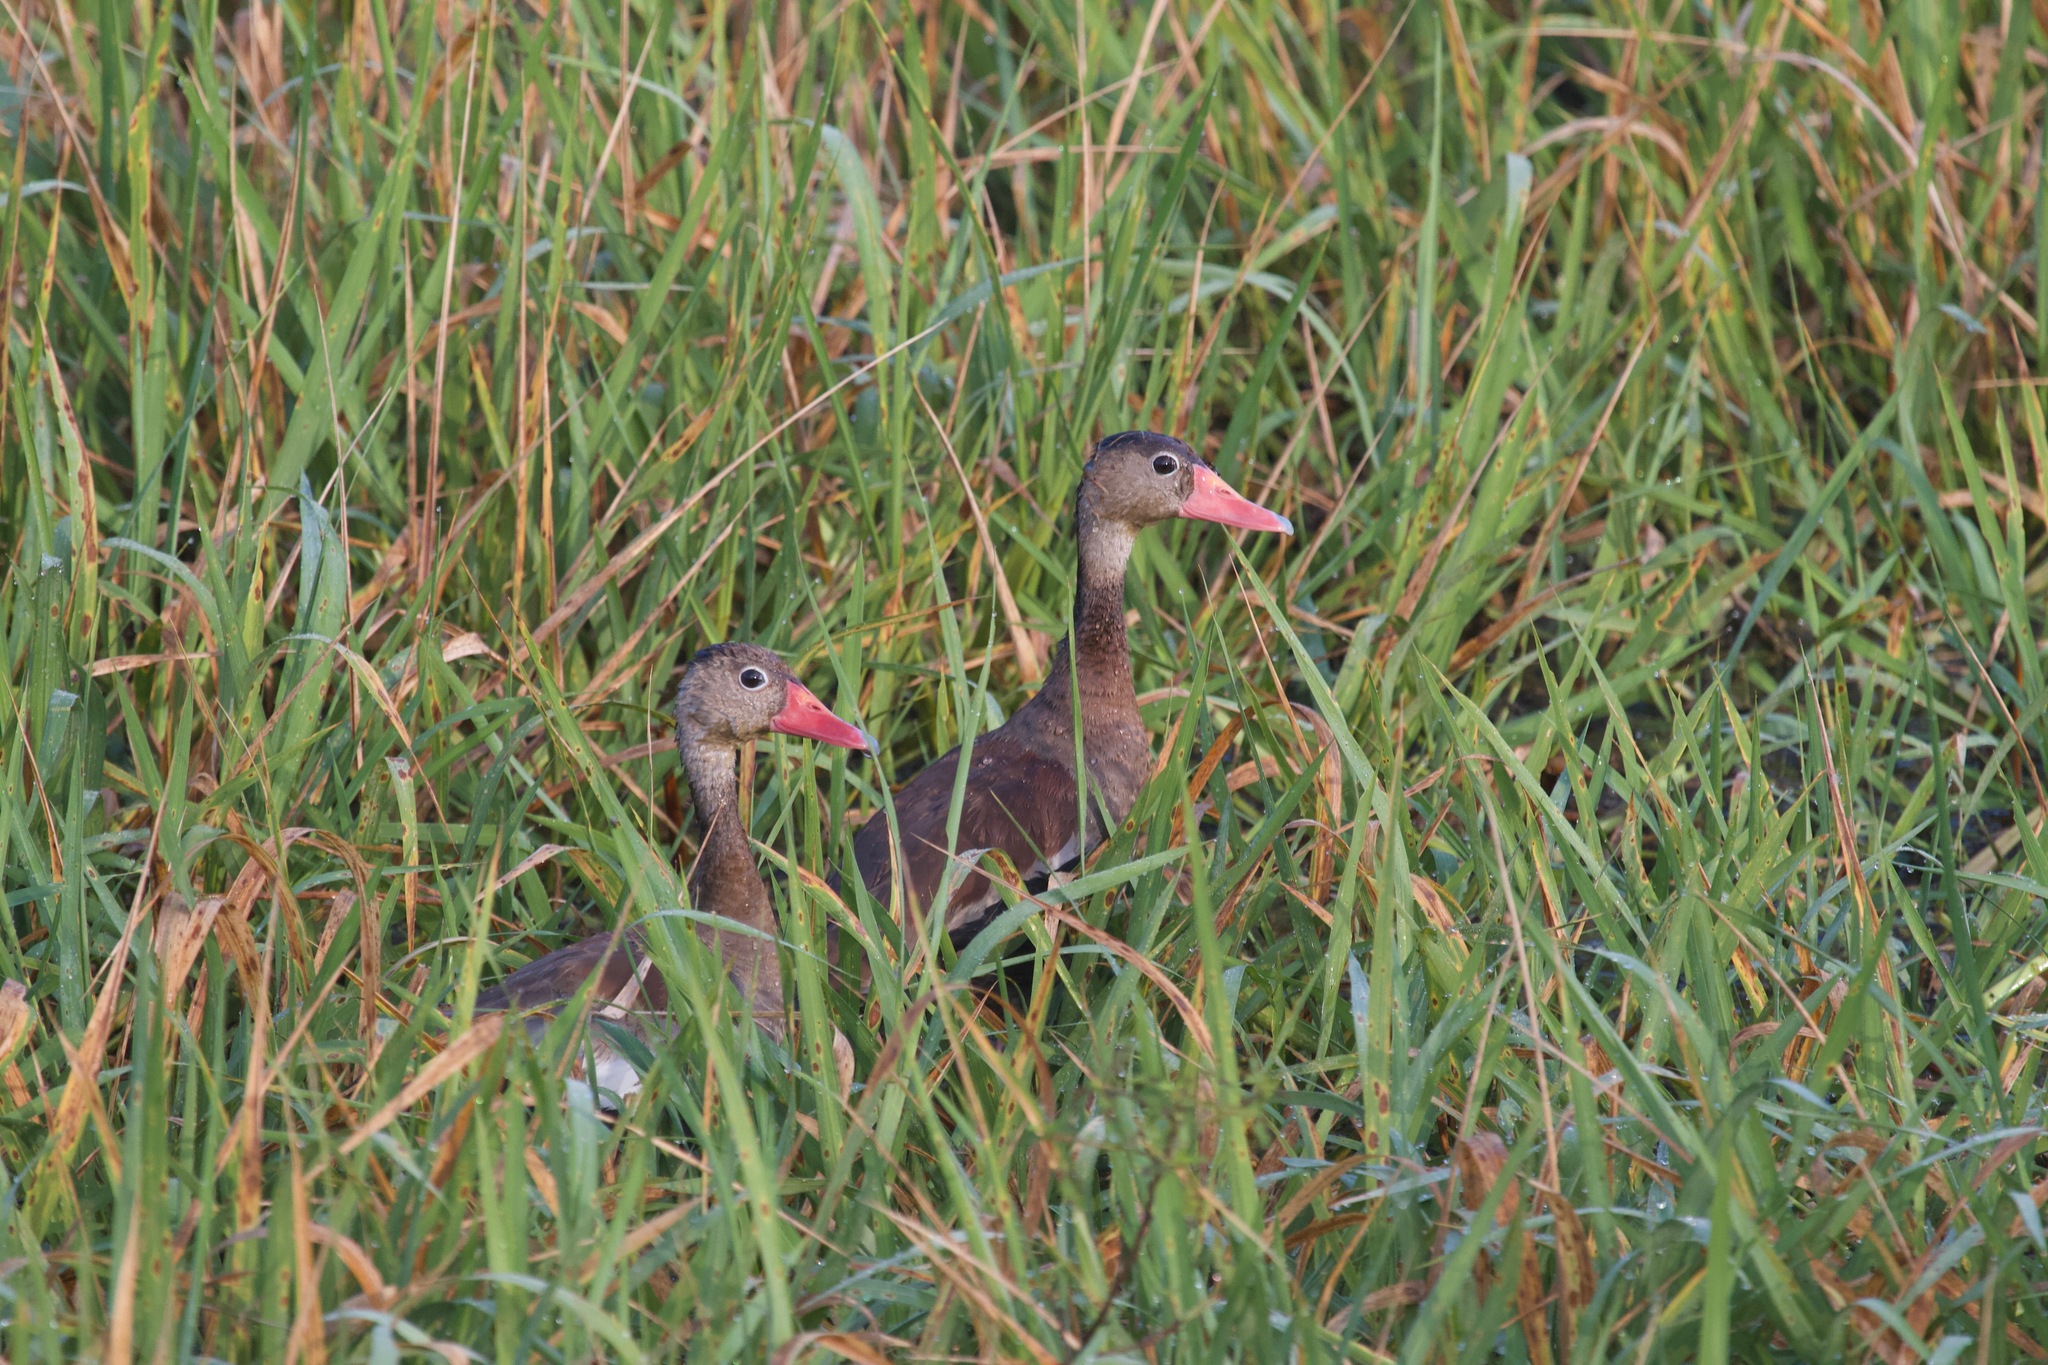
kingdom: Animalia
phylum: Chordata
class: Aves
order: Anseriformes
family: Anatidae
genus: Dendrocygna
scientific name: Dendrocygna autumnalis
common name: Black-bellied whistling duck
